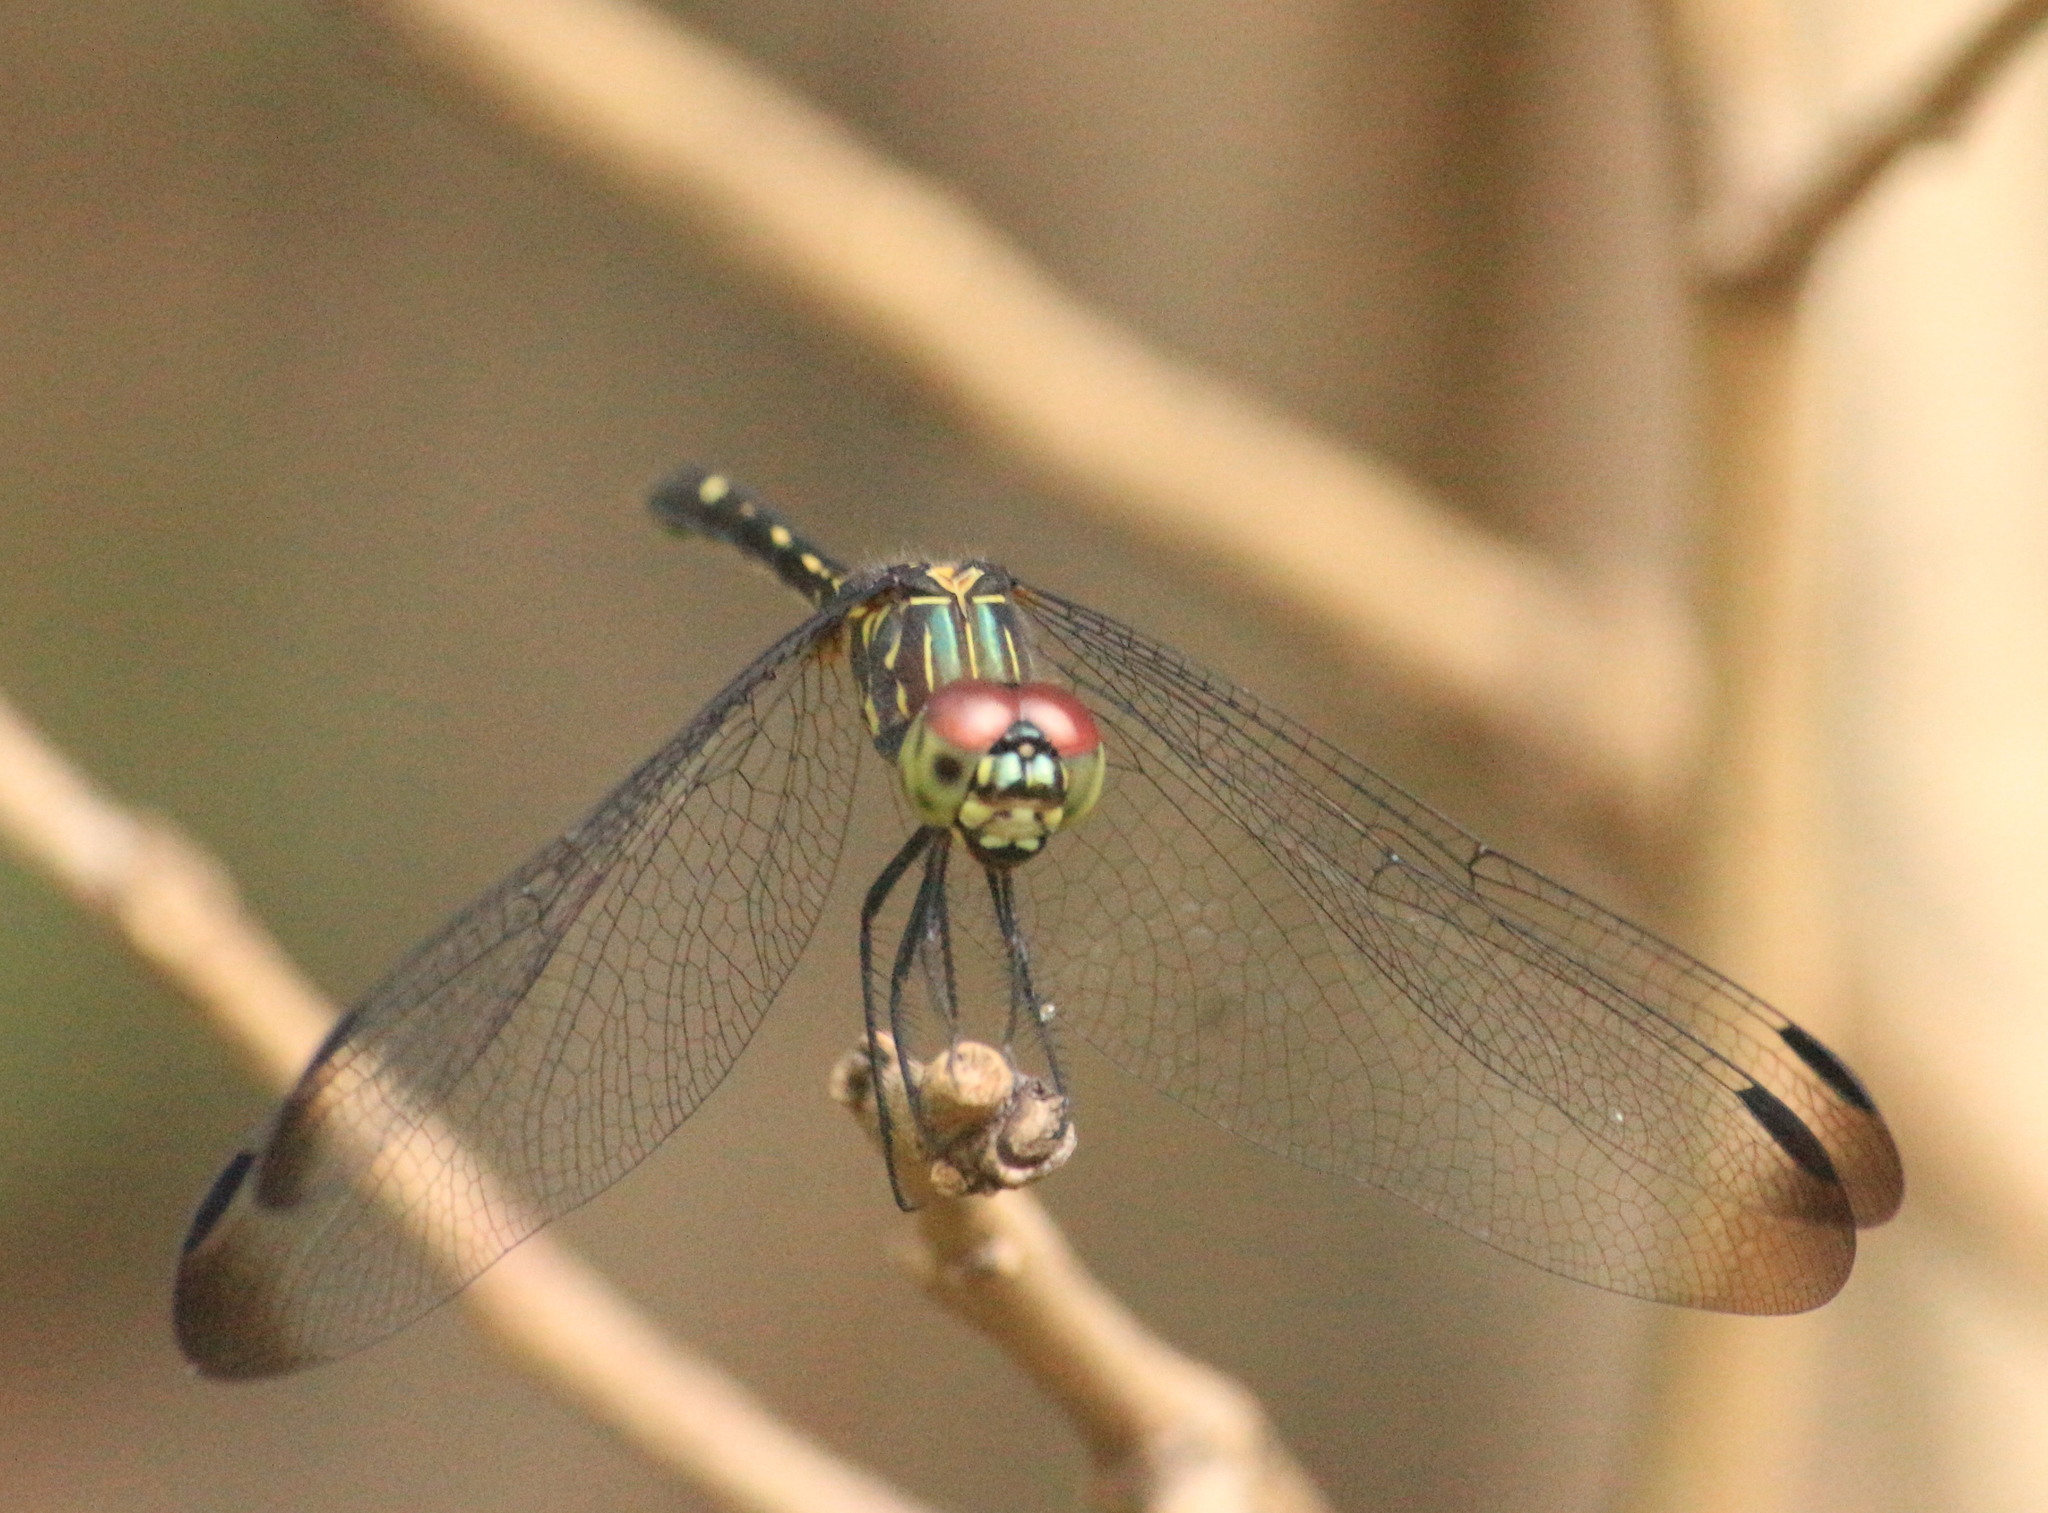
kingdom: Animalia
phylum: Arthropoda
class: Insecta
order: Odonata
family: Libellulidae
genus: Dythemis
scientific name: Dythemis nigra
